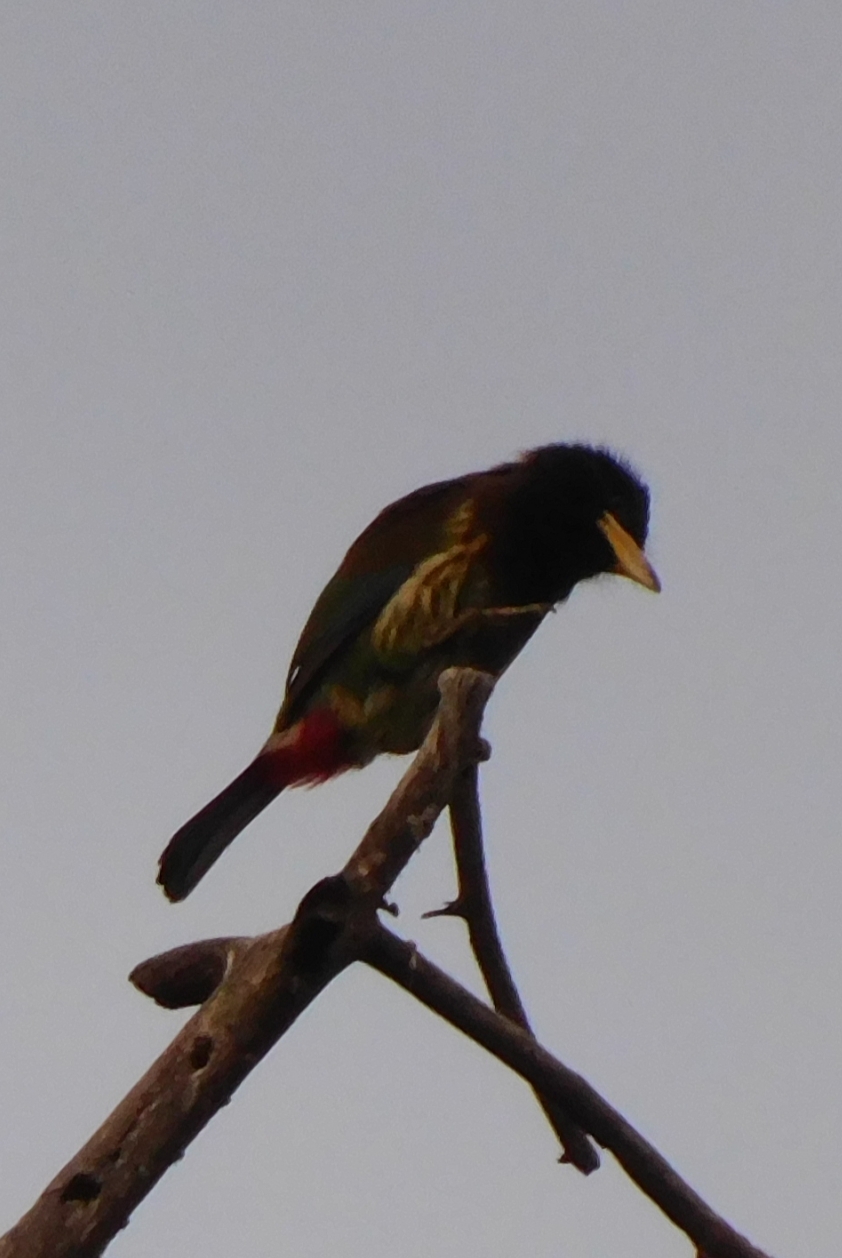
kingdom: Animalia
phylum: Chordata
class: Aves
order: Piciformes
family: Megalaimidae
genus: Psilopogon
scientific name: Psilopogon virens
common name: Great barbet
